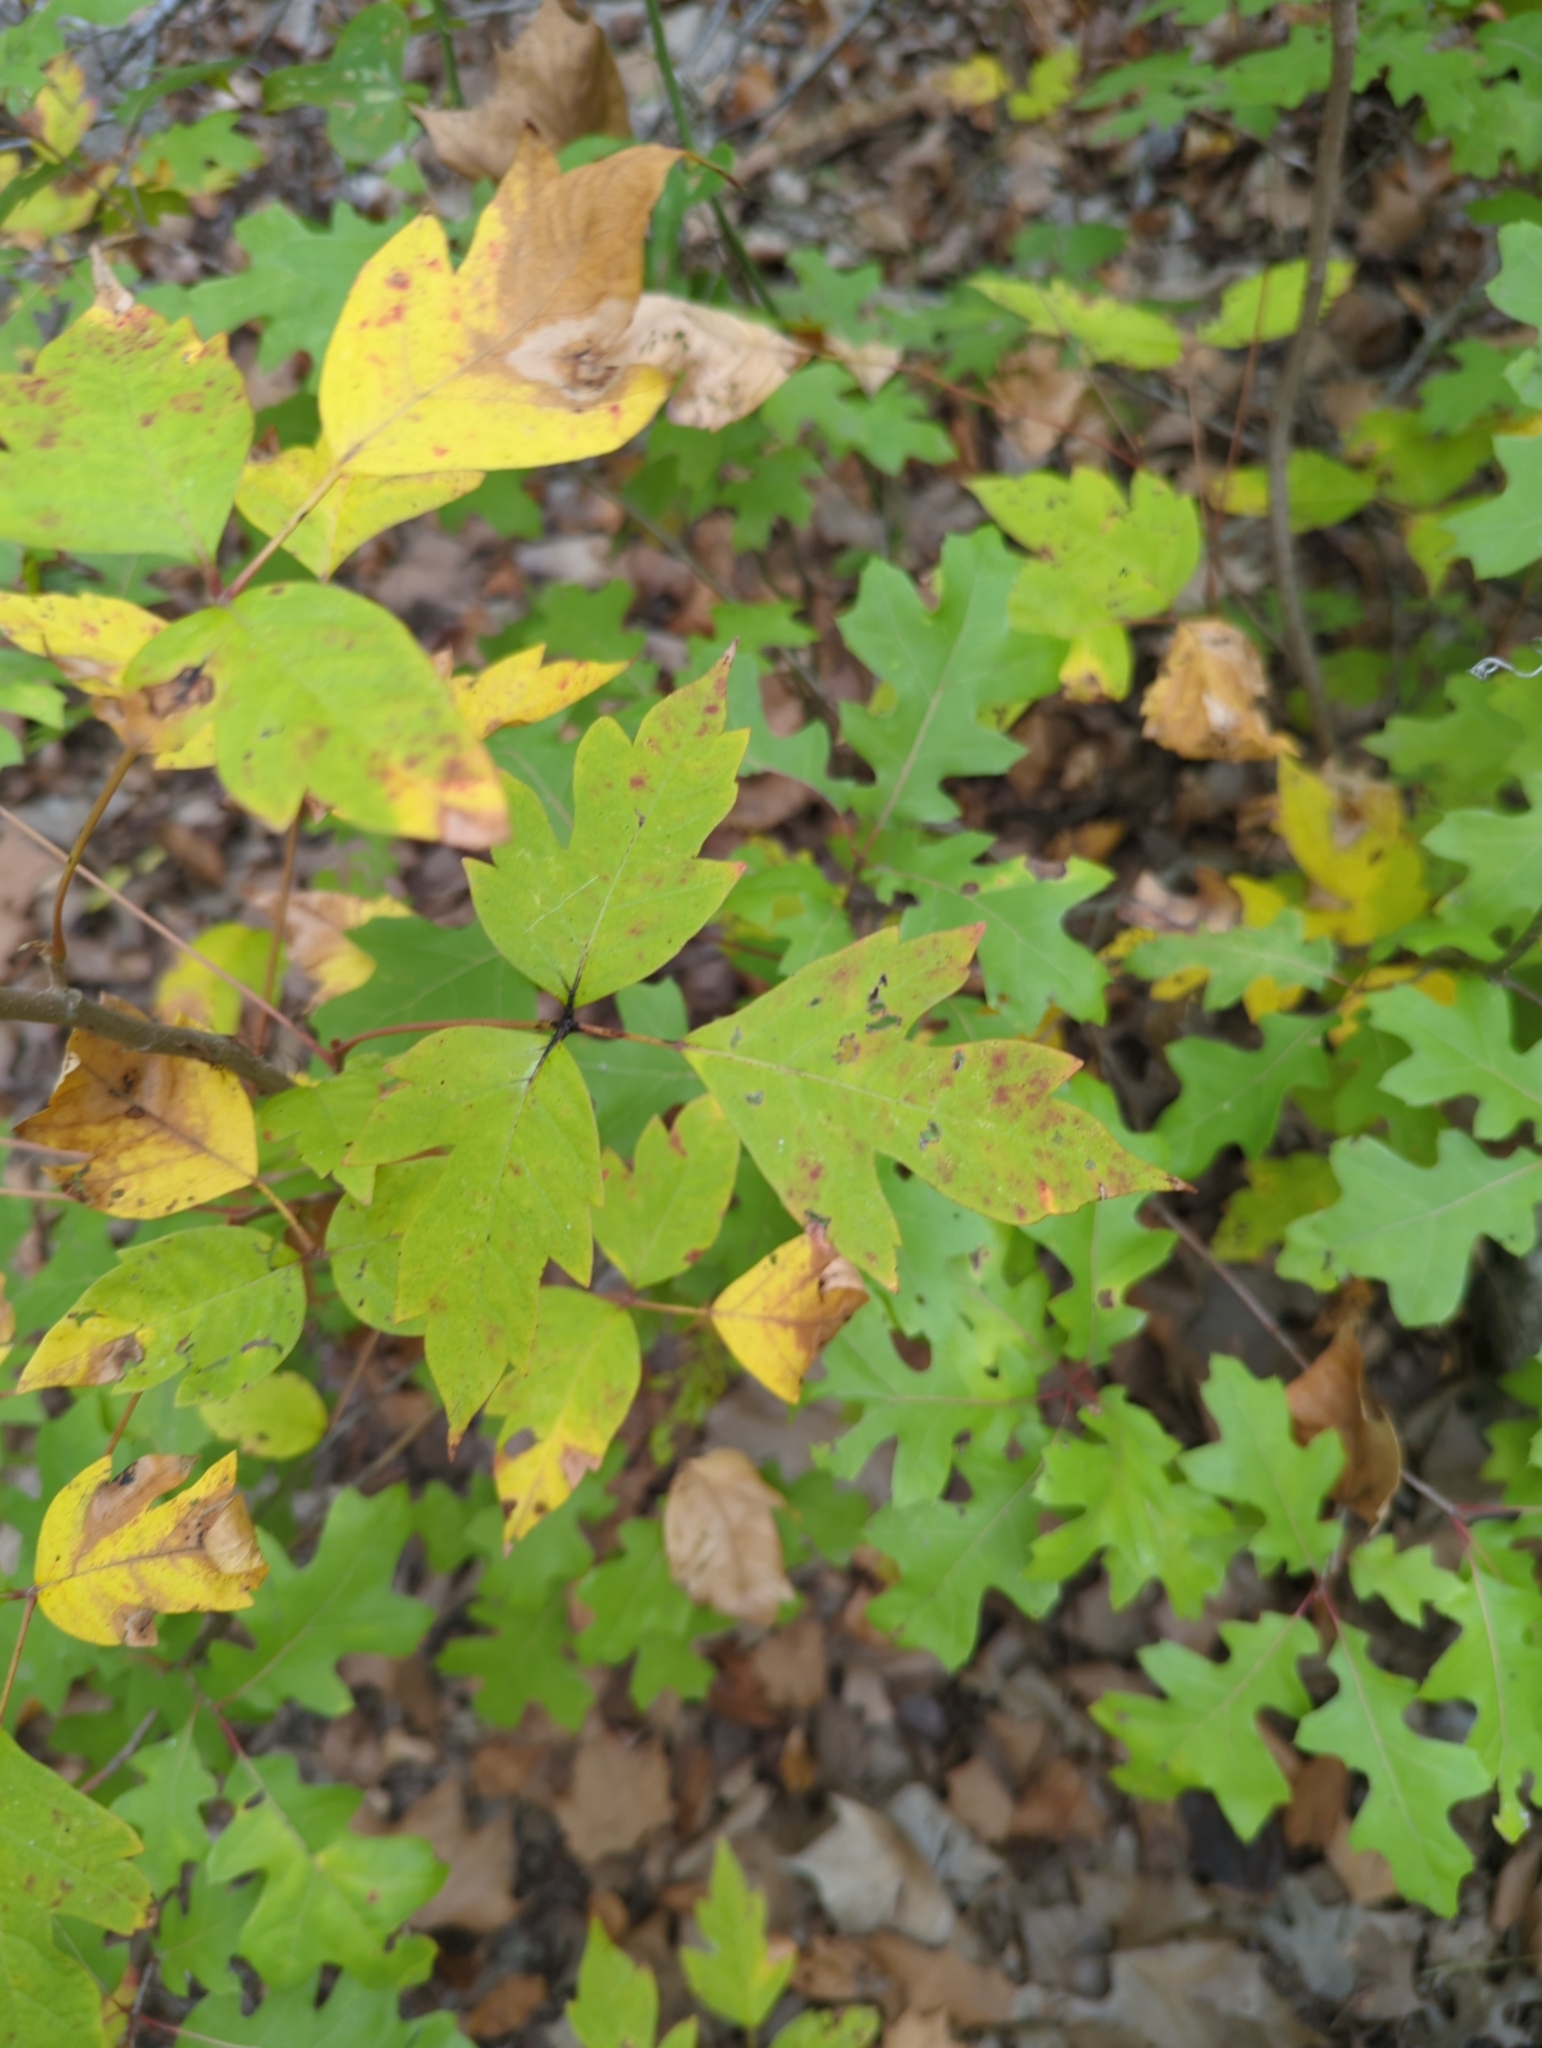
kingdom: Plantae
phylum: Tracheophyta
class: Magnoliopsida
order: Sapindales
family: Anacardiaceae
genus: Toxicodendron
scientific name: Toxicodendron radicans
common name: Poison ivy
